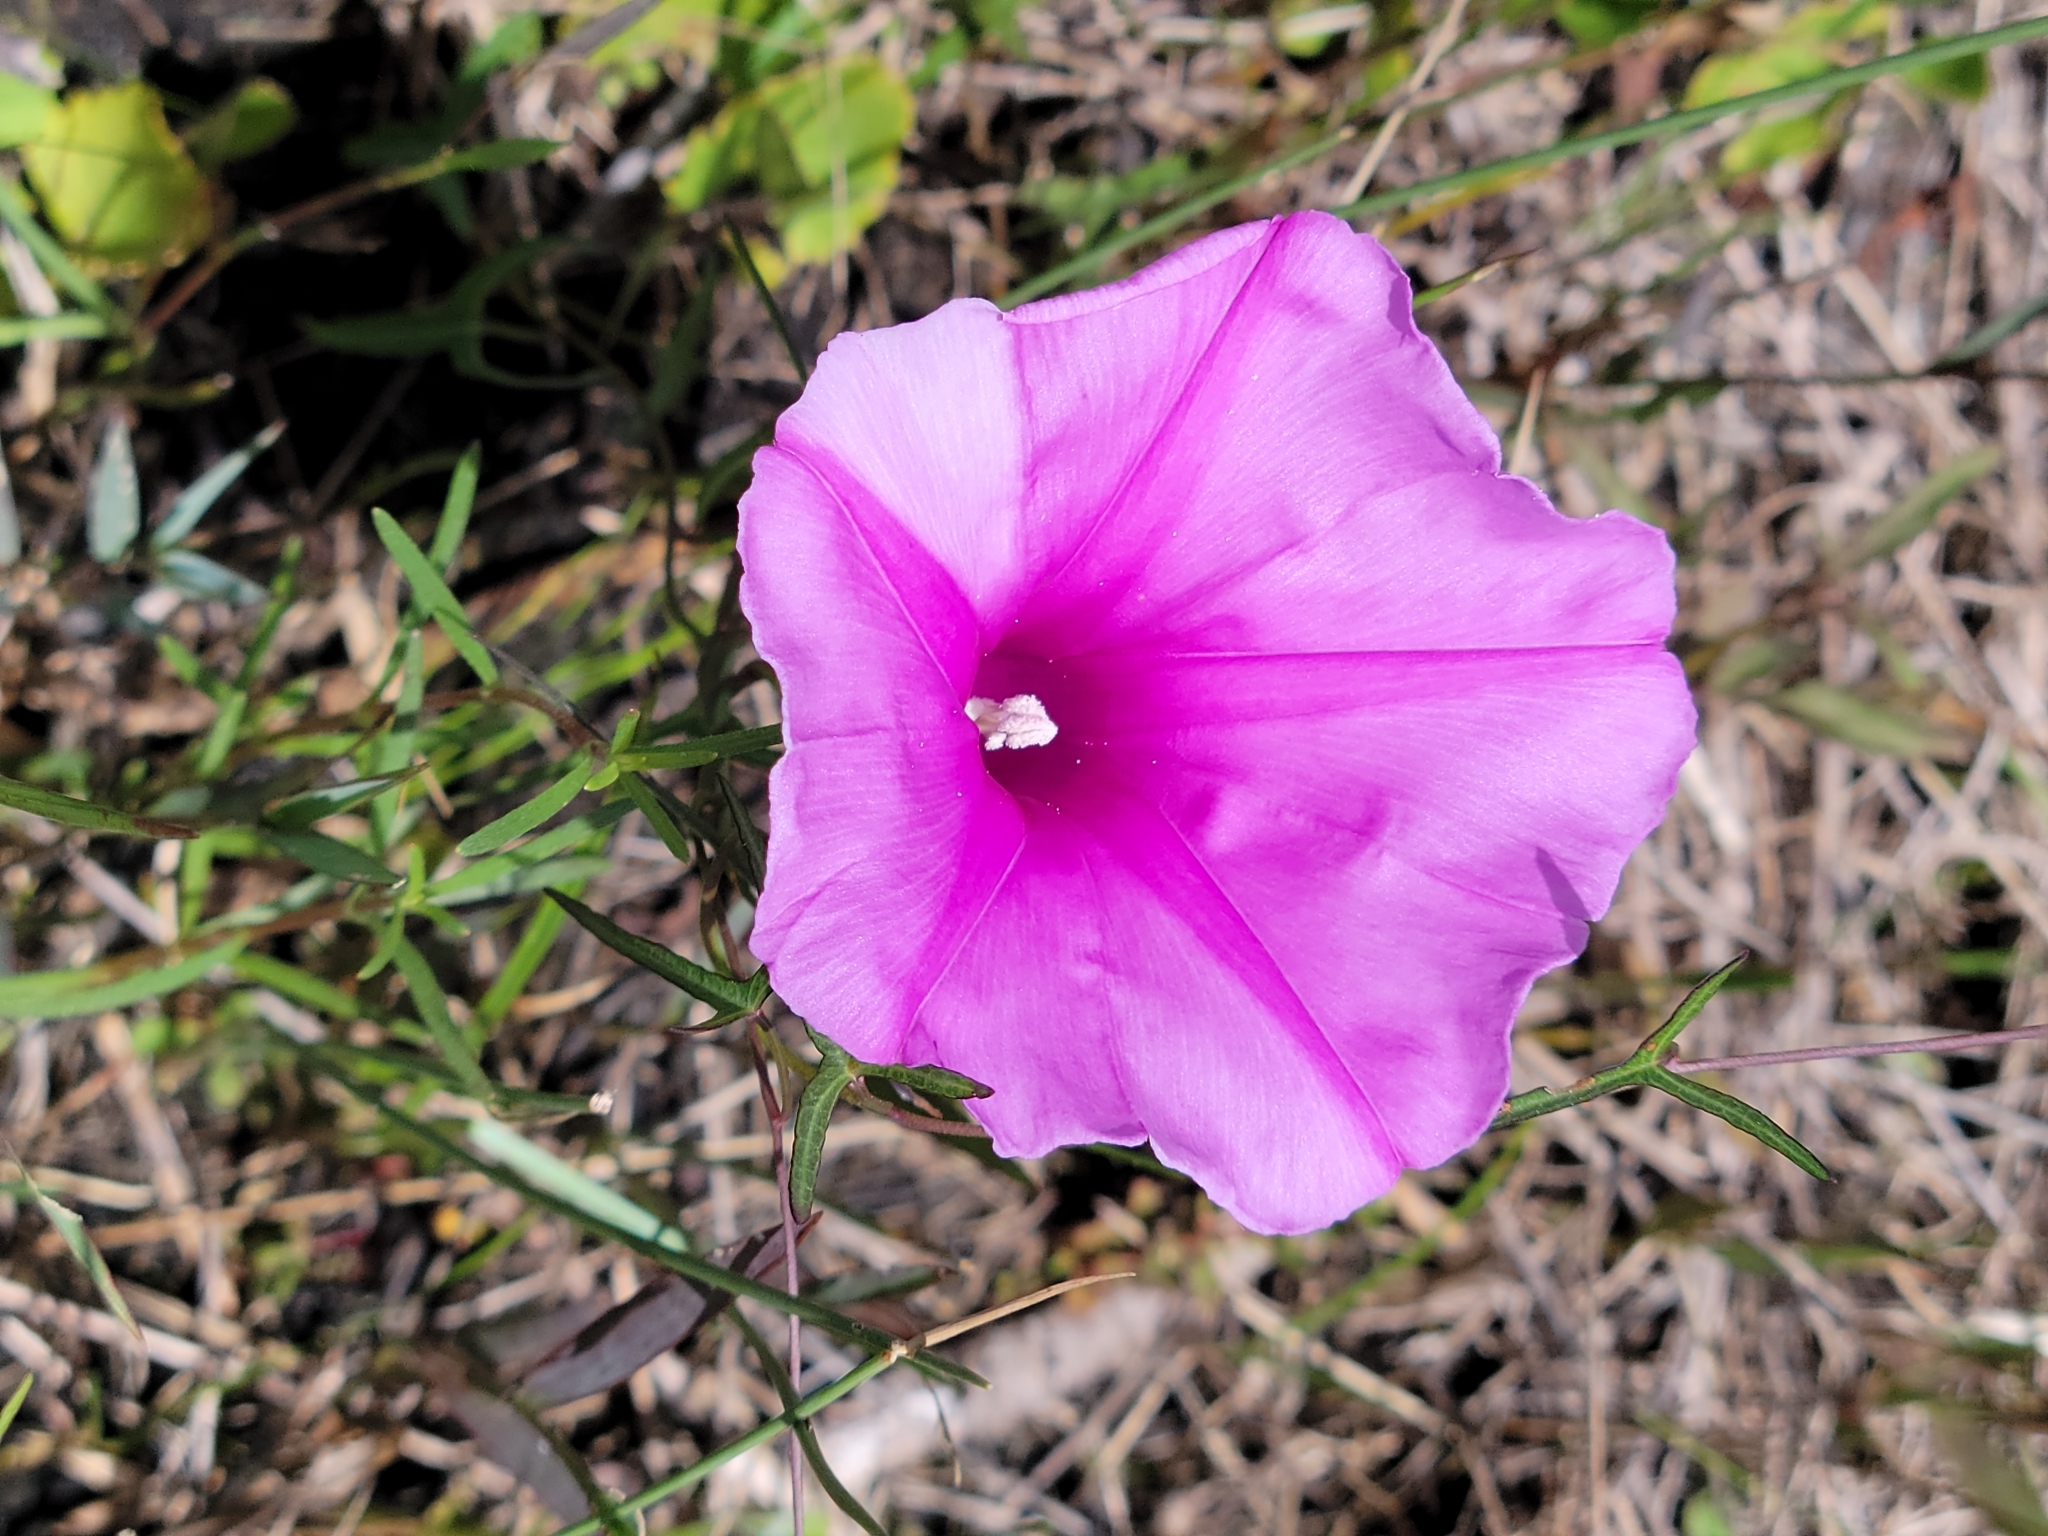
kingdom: Plantae
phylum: Tracheophyta
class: Magnoliopsida
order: Solanales
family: Convolvulaceae
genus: Ipomoea
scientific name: Ipomoea sagittata
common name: Saltmarsh morning glory
